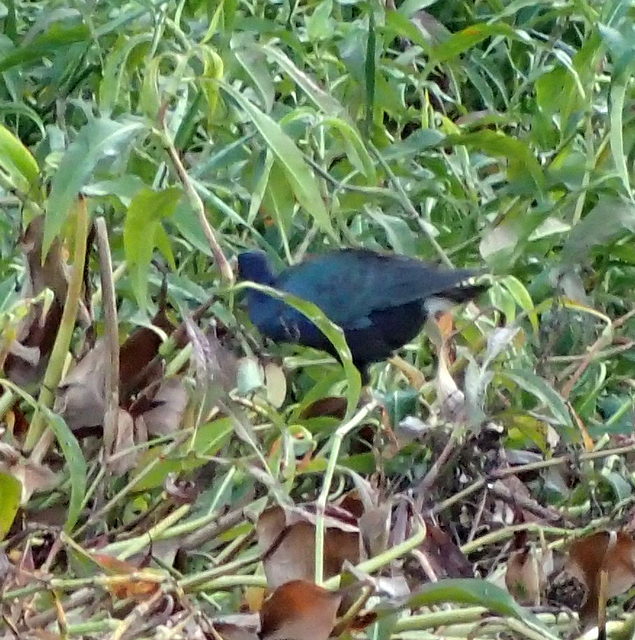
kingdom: Animalia
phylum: Chordata
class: Aves
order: Gruiformes
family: Rallidae
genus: Porphyrio
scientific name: Porphyrio martinica
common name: Purple gallinule
